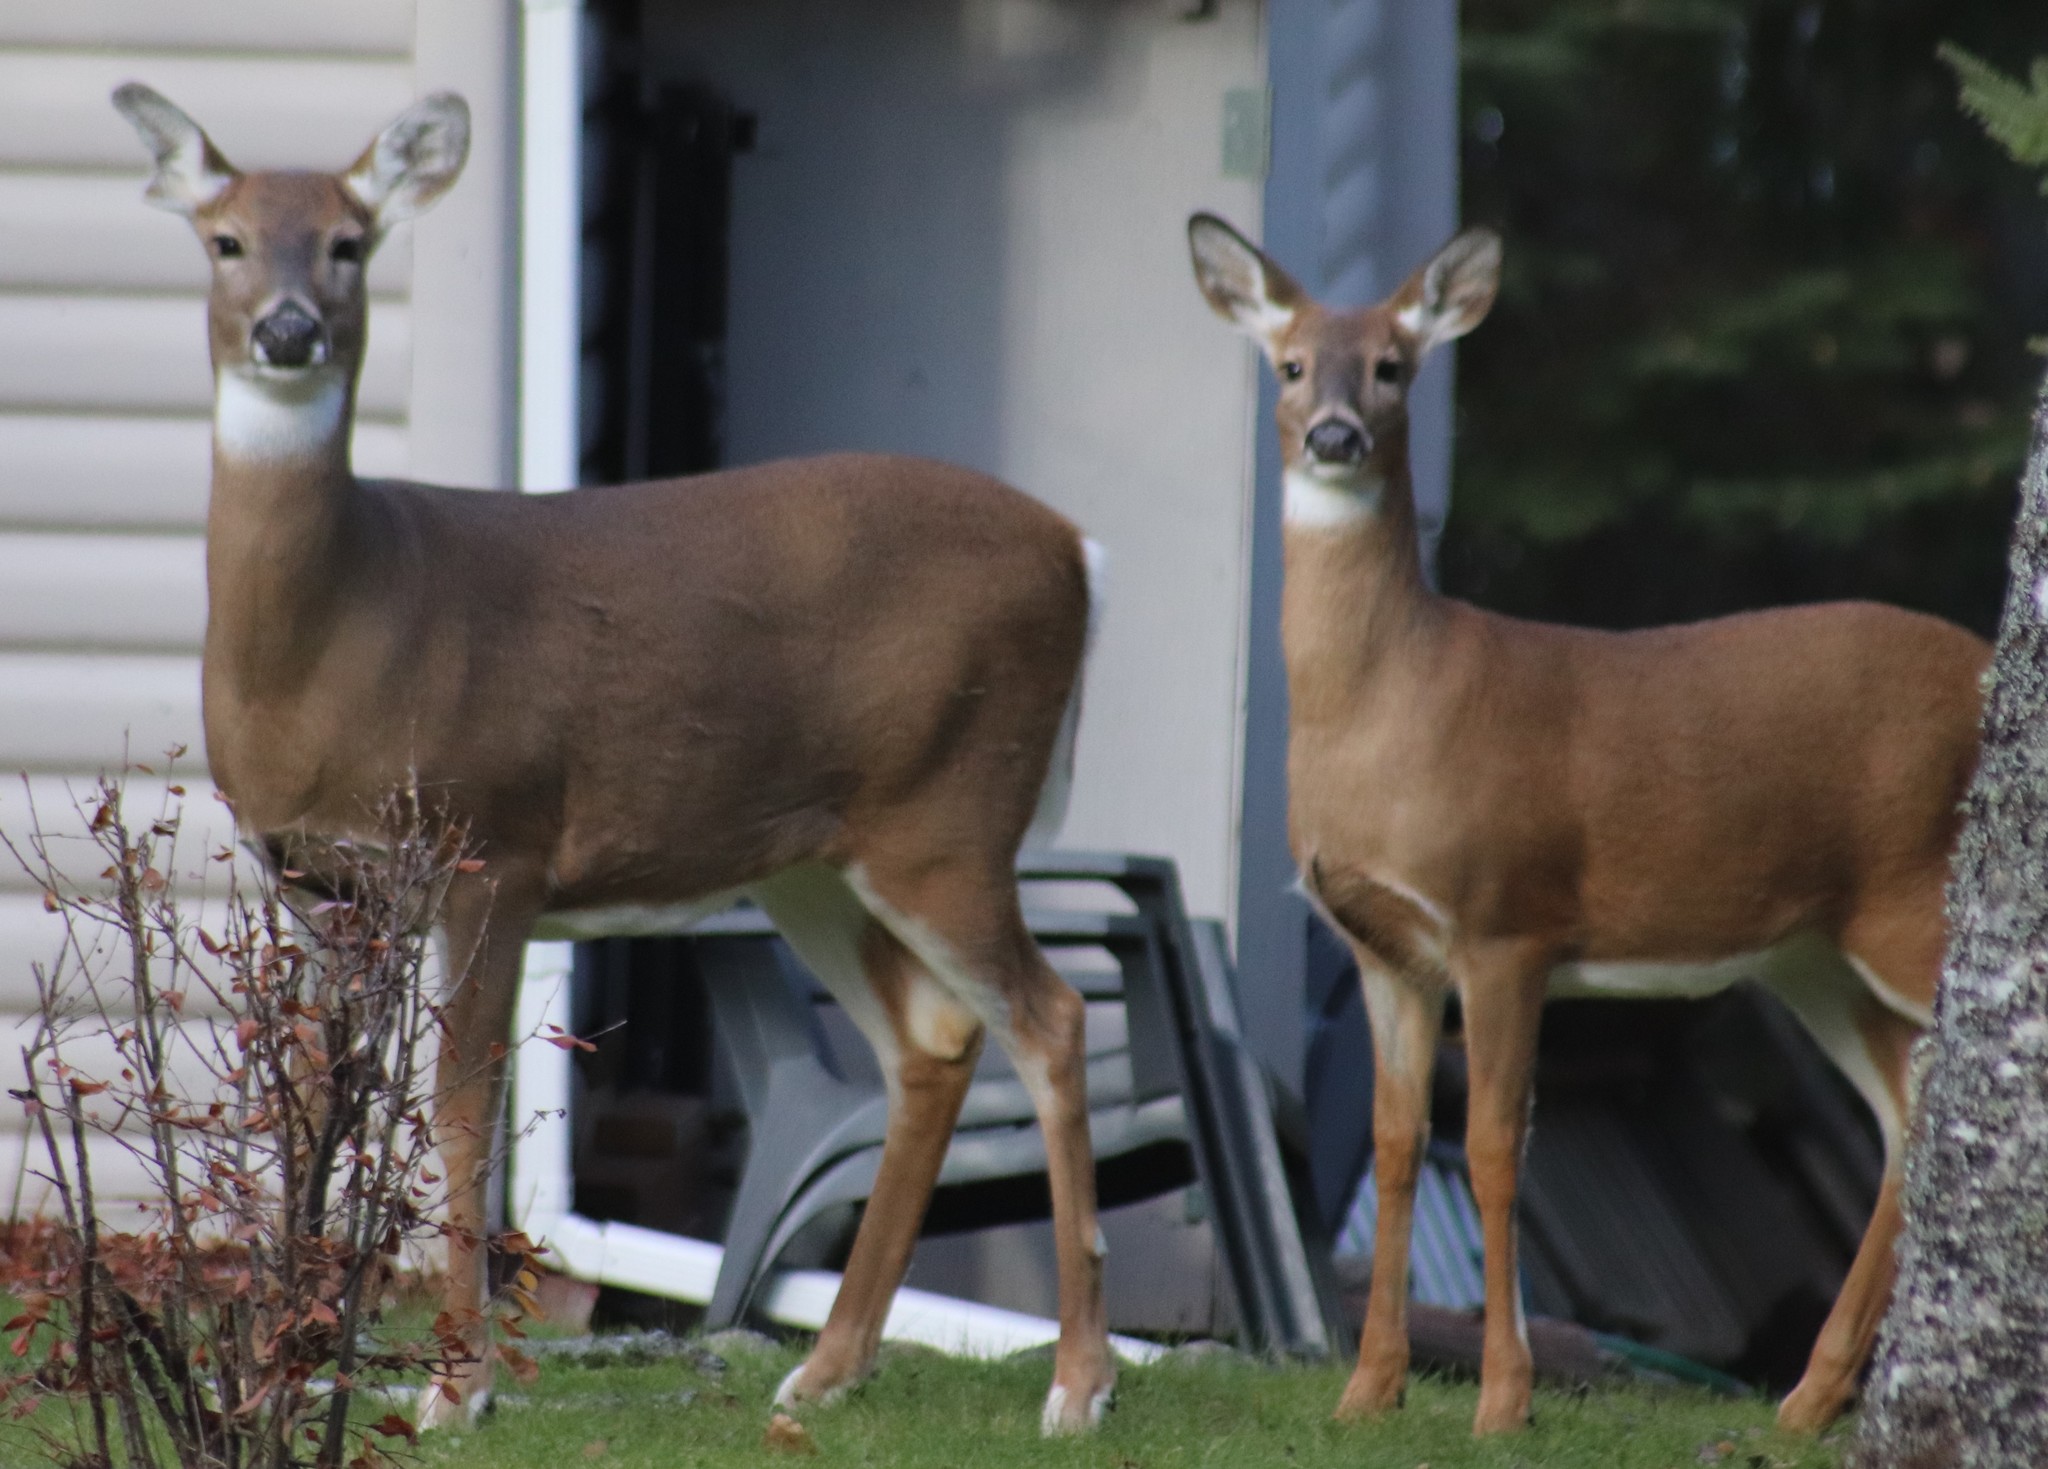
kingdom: Animalia
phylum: Chordata
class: Mammalia
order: Artiodactyla
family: Cervidae
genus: Odocoileus
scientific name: Odocoileus virginianus
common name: White-tailed deer
